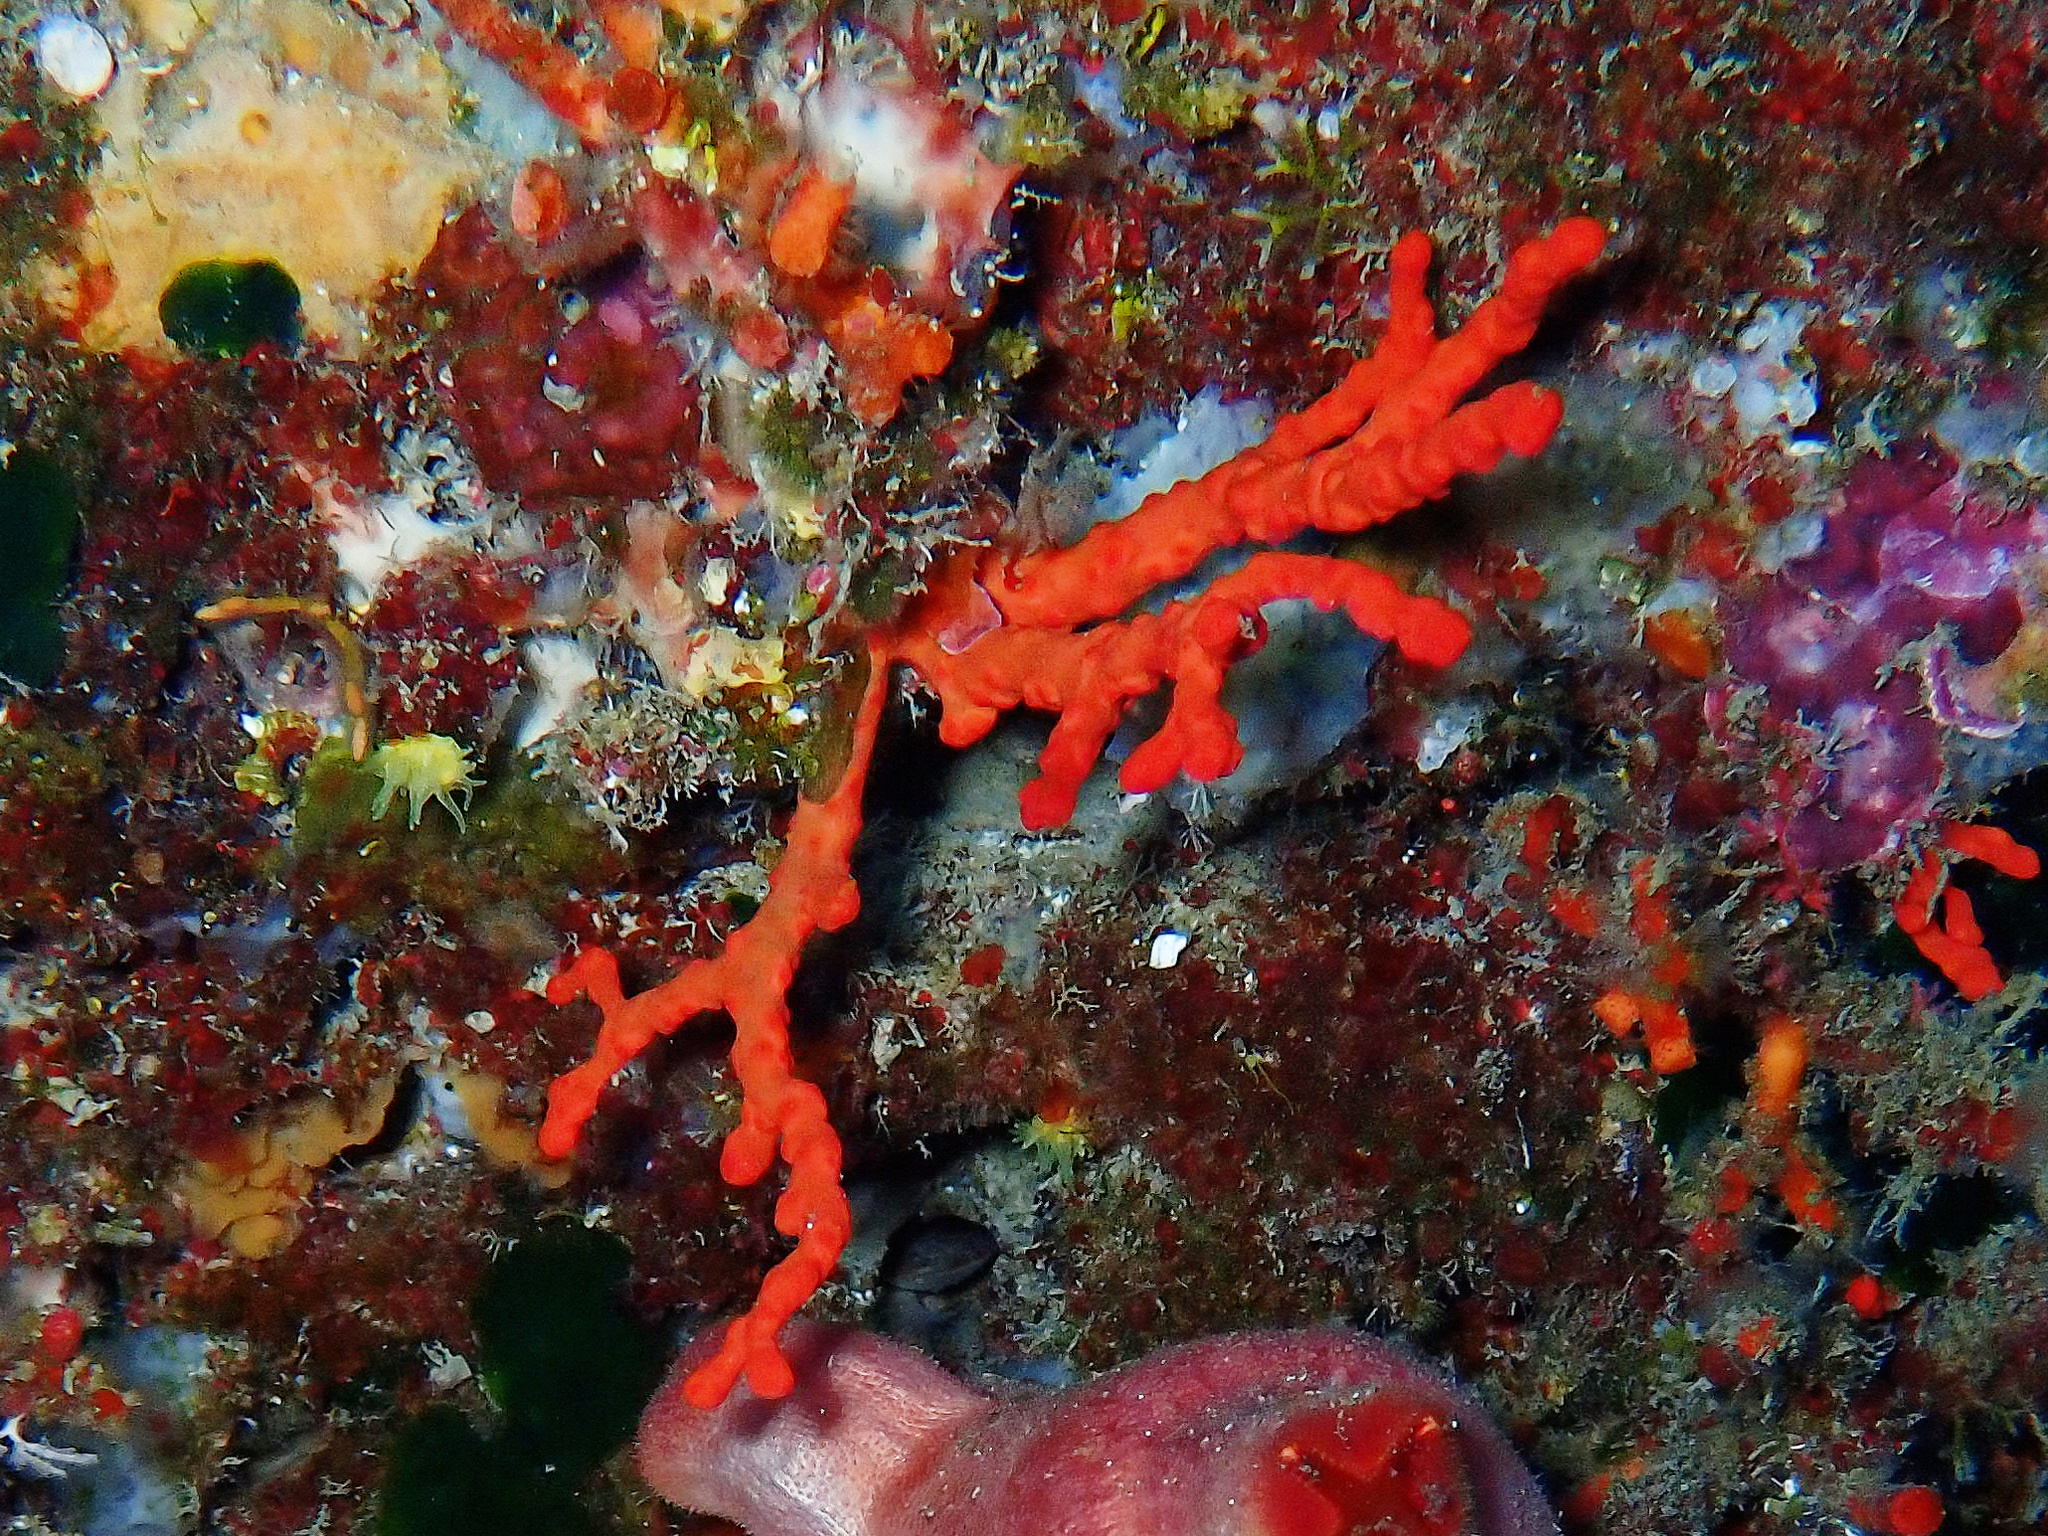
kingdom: Animalia
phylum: Cnidaria
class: Anthozoa
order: Scleralcyonacea
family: Coralliidae
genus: Corallium
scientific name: Corallium rubrum
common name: Precious coral
